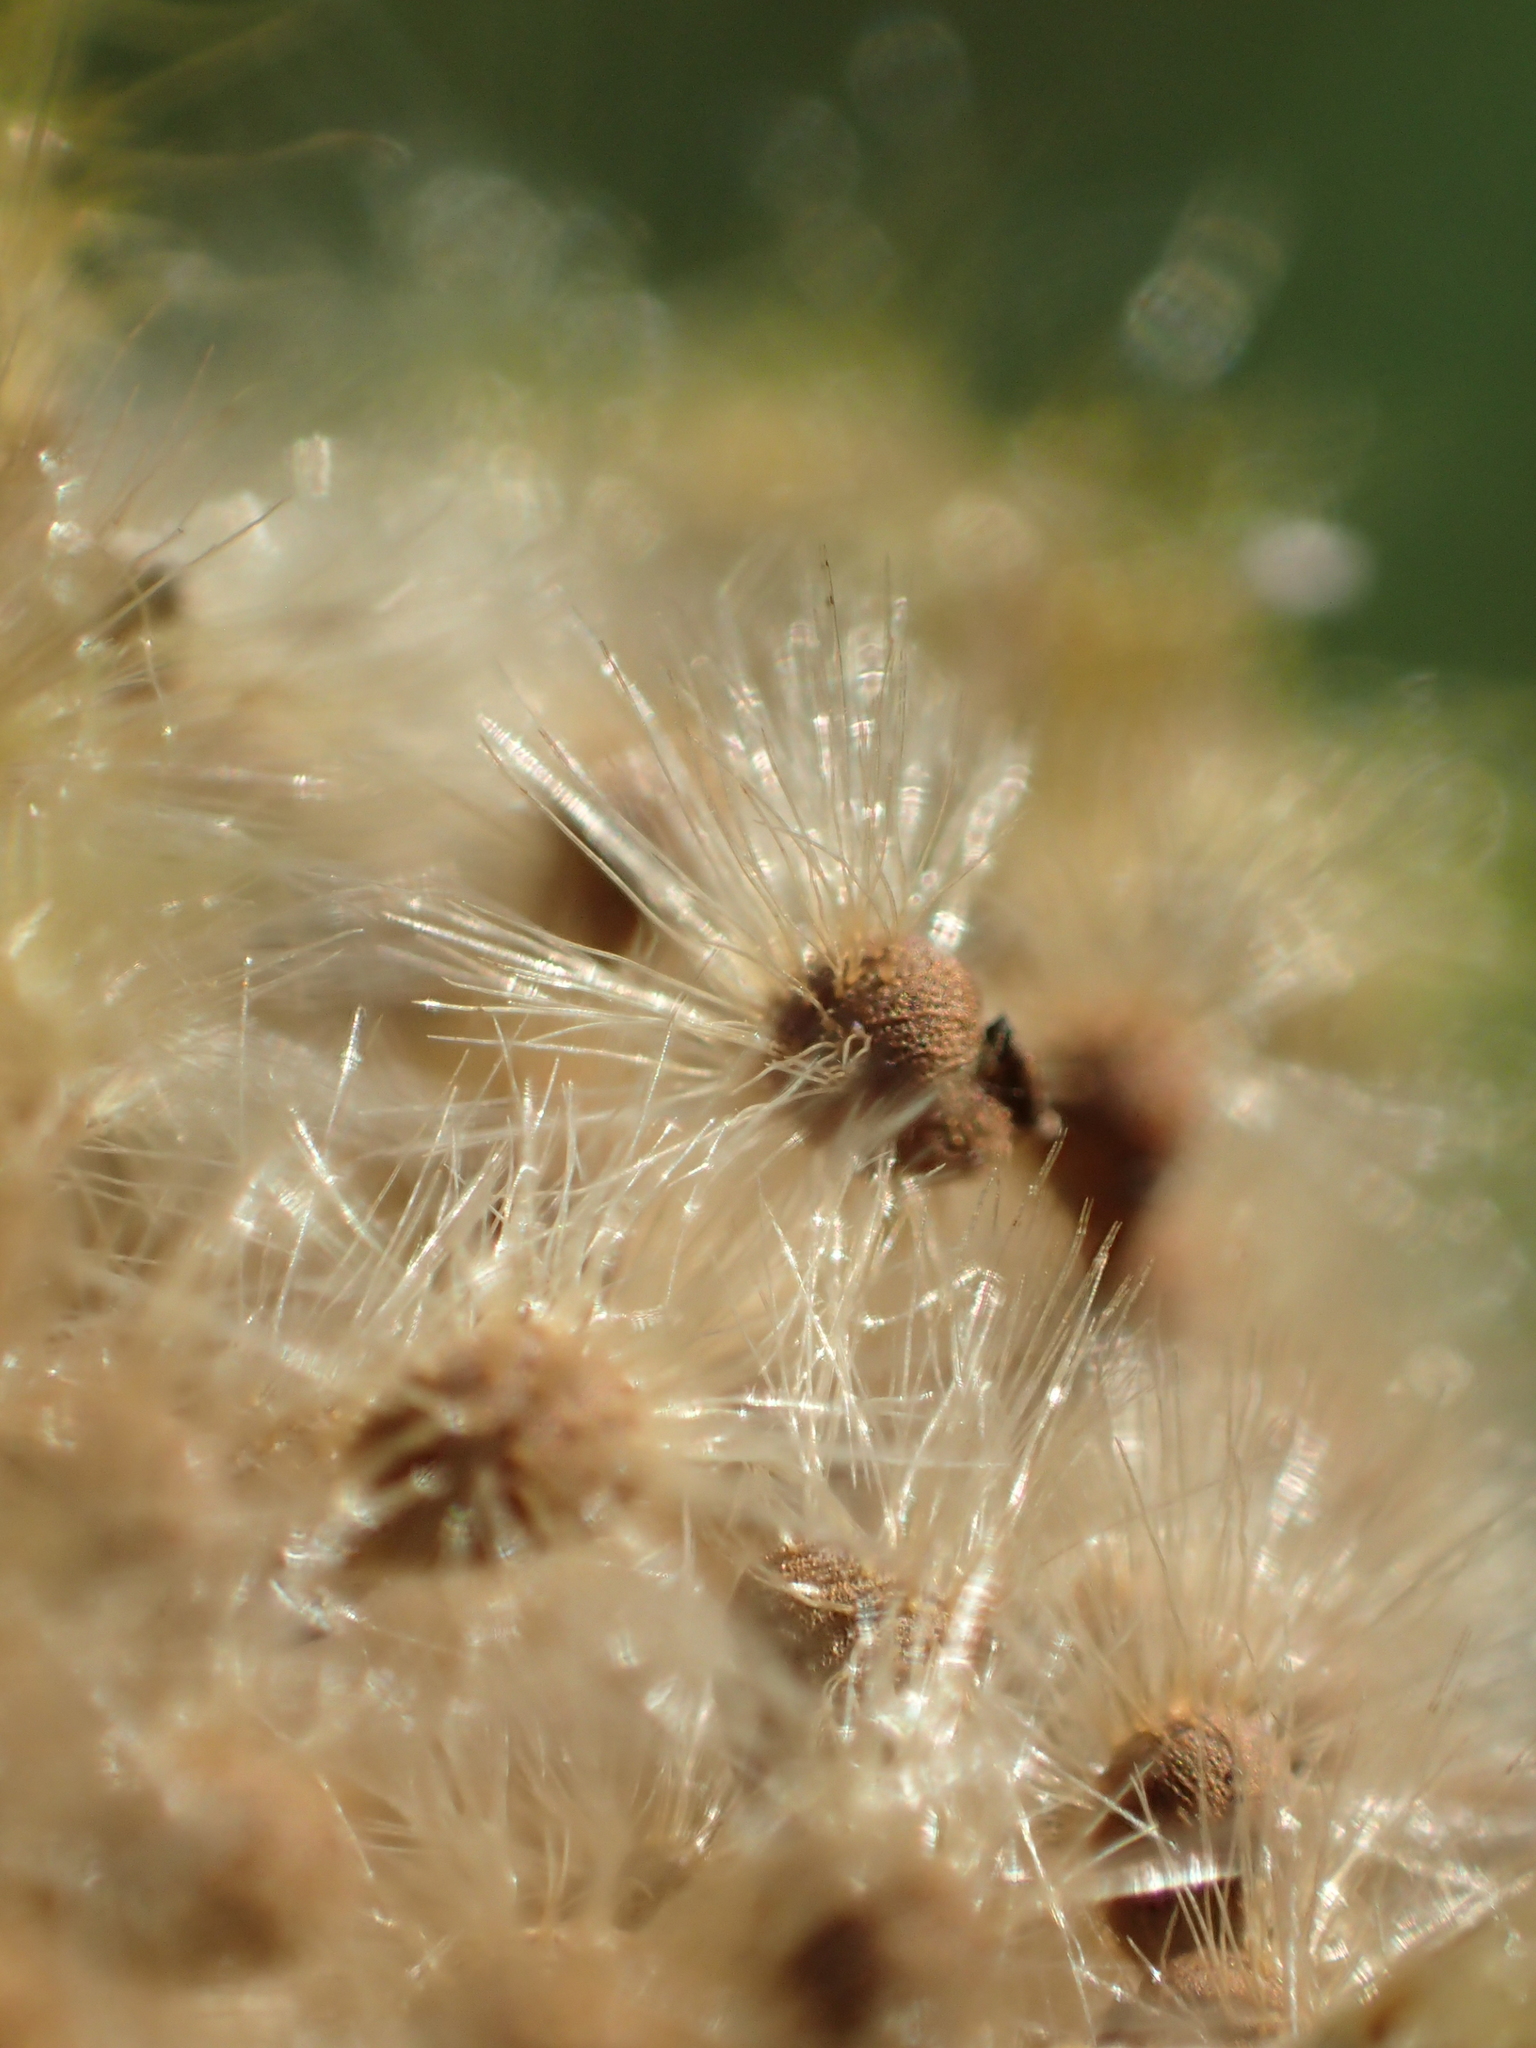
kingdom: Plantae
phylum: Tracheophyta
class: Magnoliopsida
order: Malvales
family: Malvaceae
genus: Hibiscus
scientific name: Hibiscus taiwanensis
